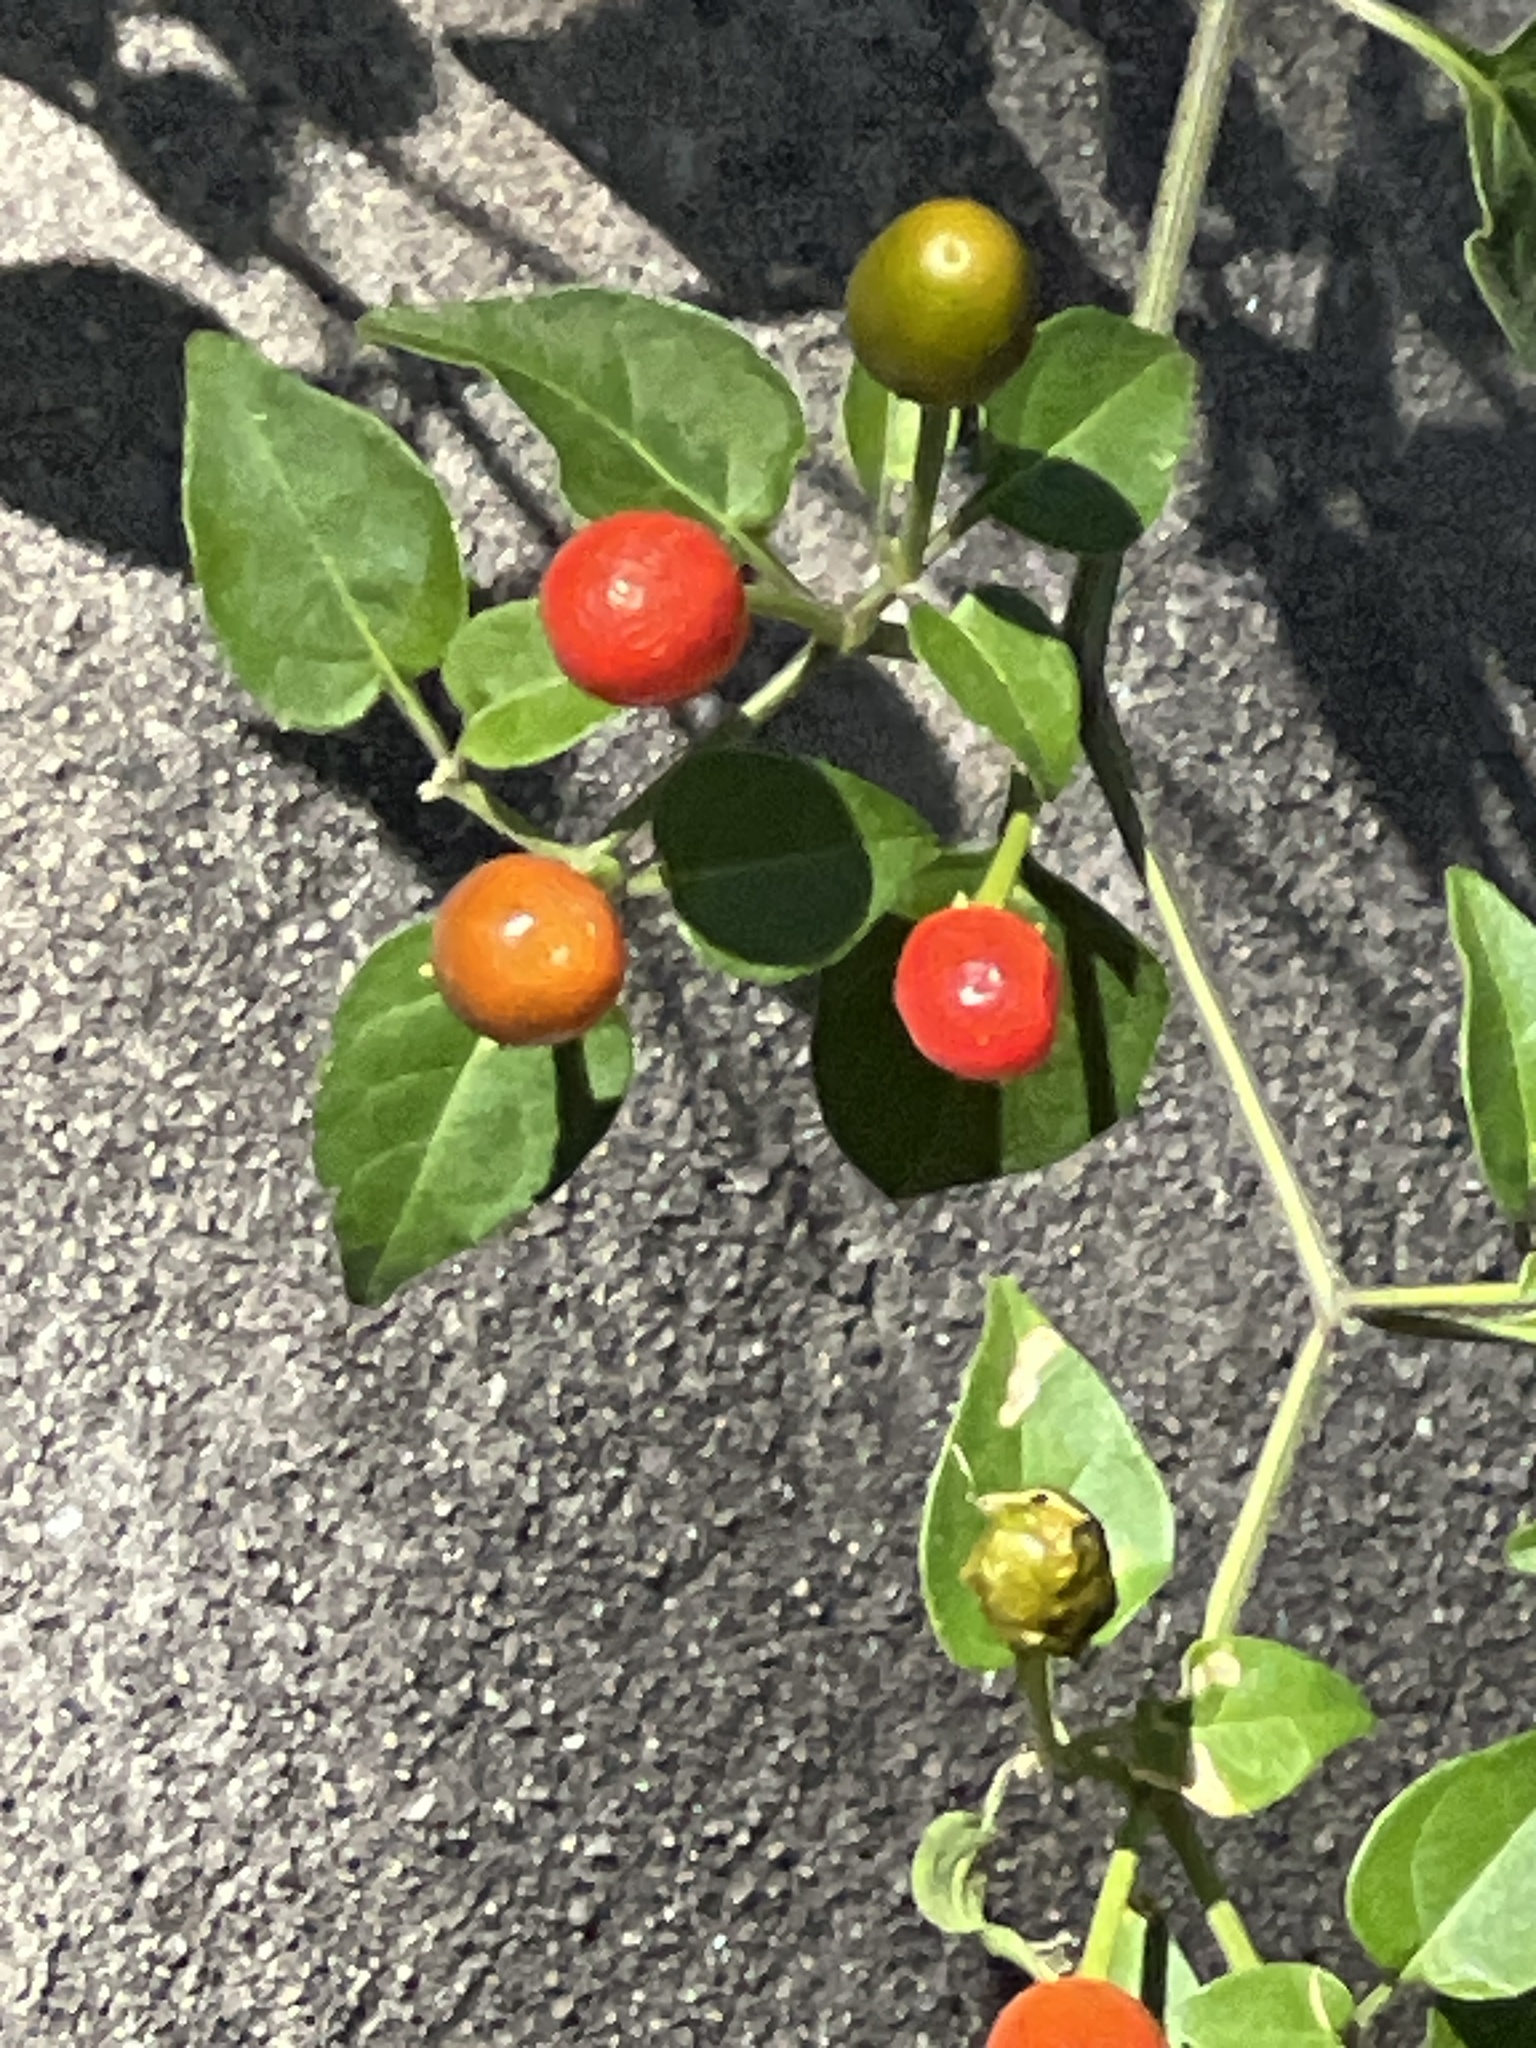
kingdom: Plantae
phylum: Tracheophyta
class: Magnoliopsida
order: Solanales
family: Solanaceae
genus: Capsicum
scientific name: Capsicum annuum
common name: Sweet pepper
